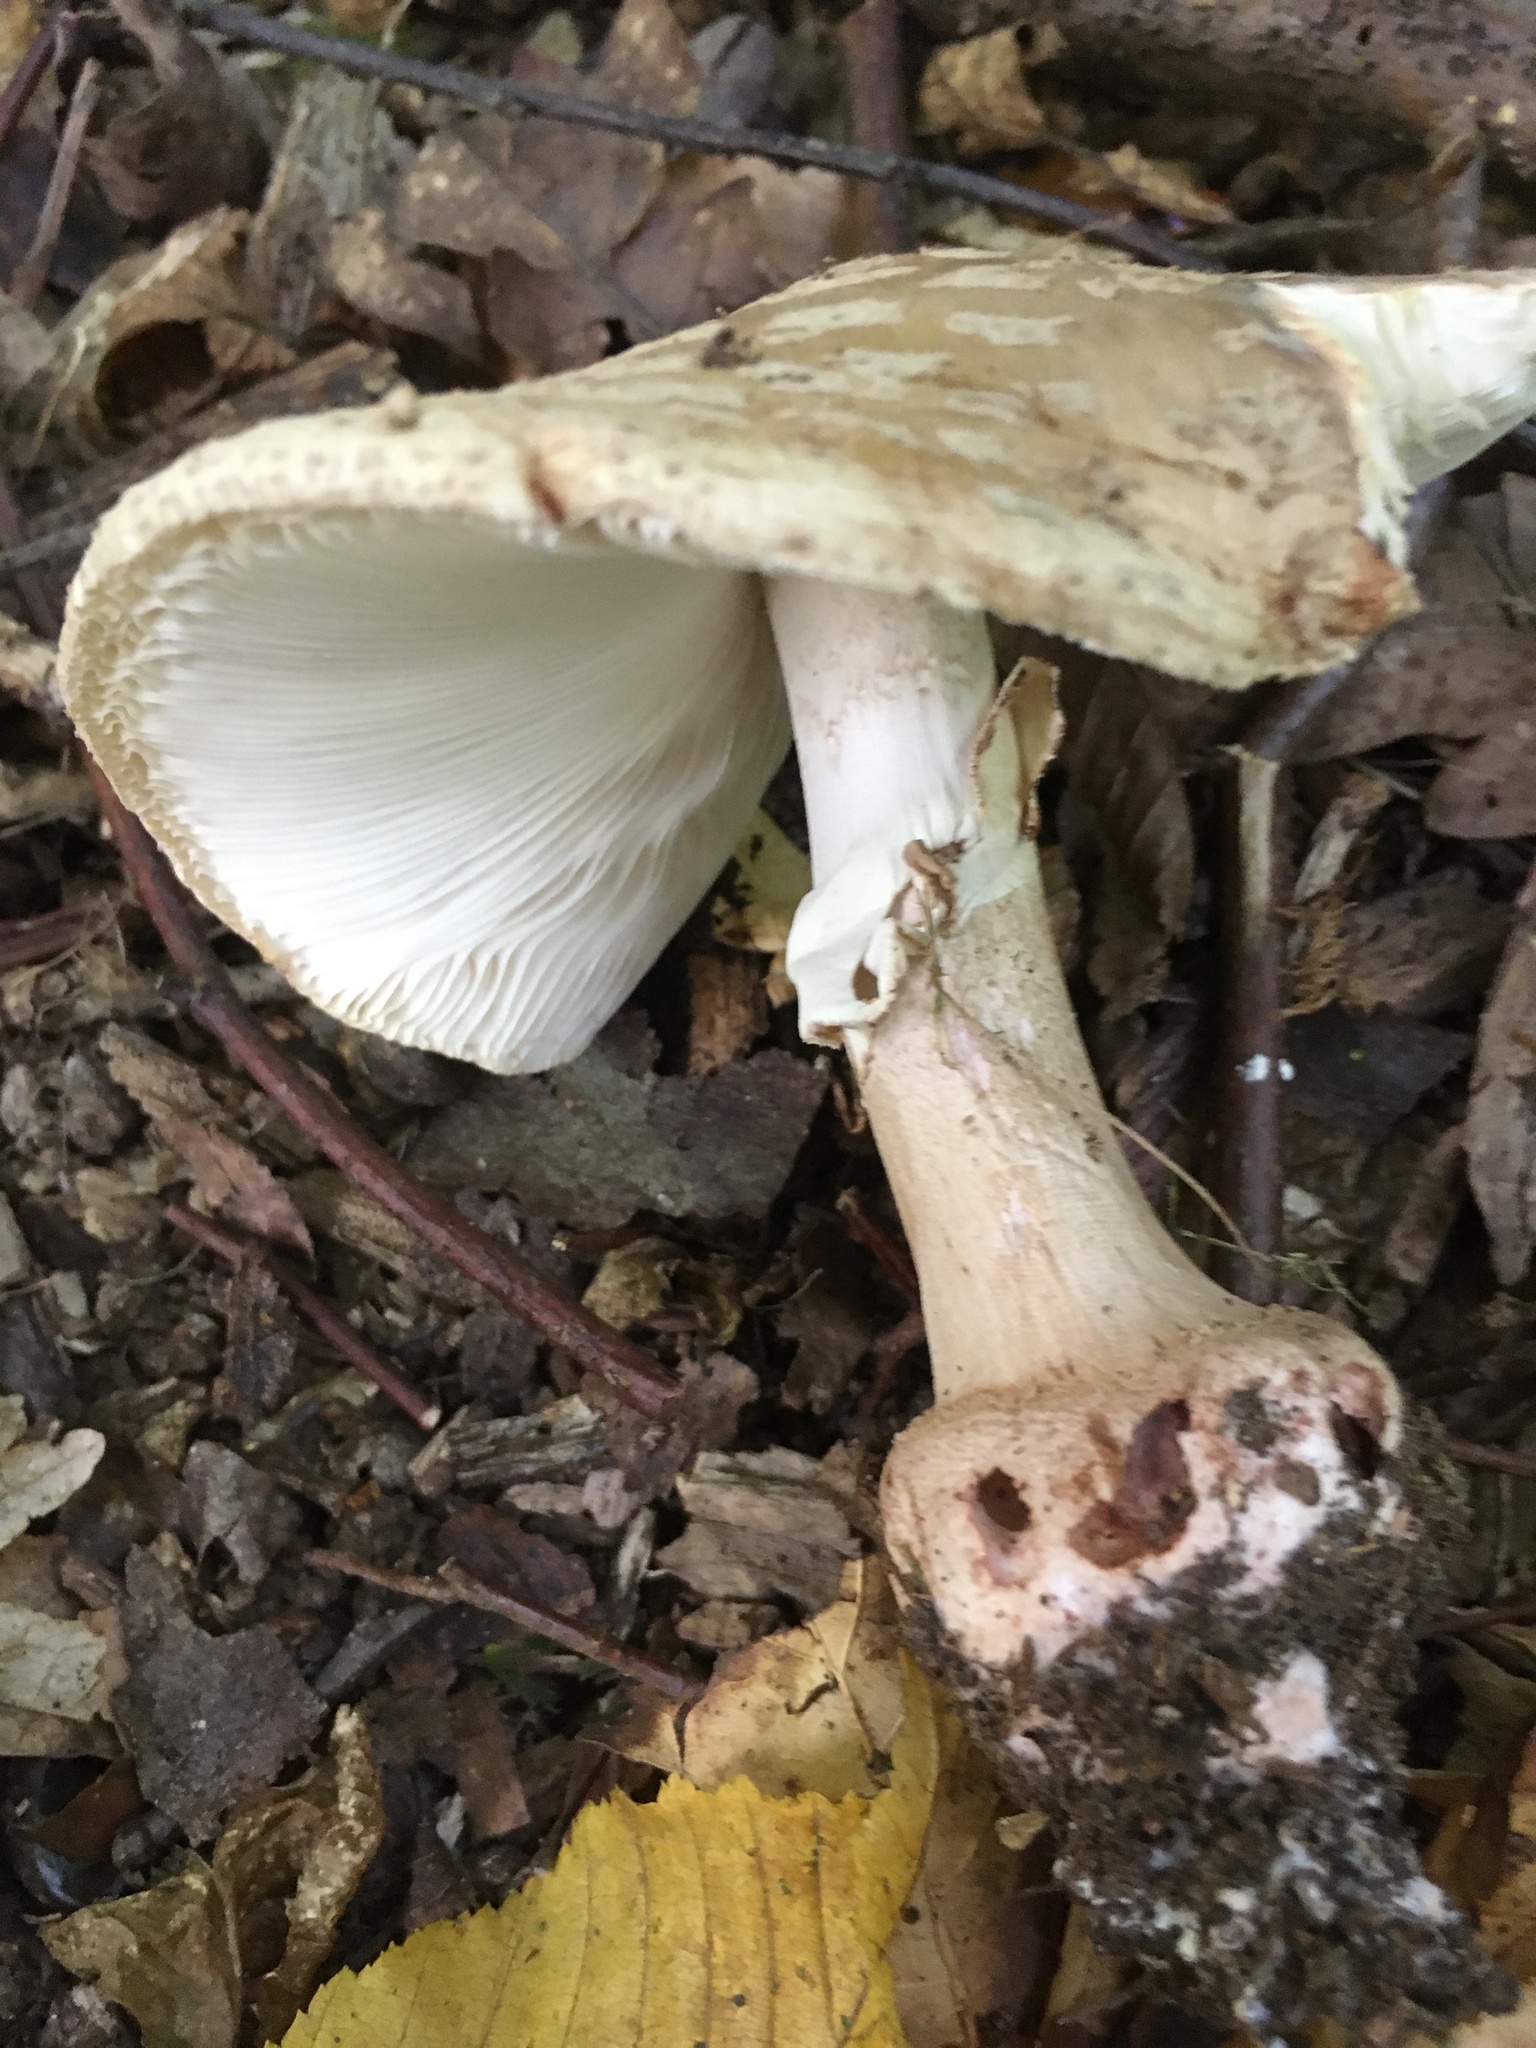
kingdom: Fungi
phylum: Basidiomycota
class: Agaricomycetes
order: Agaricales
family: Amanitaceae
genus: Amanita
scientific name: Amanita rubescens
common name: Blusher
